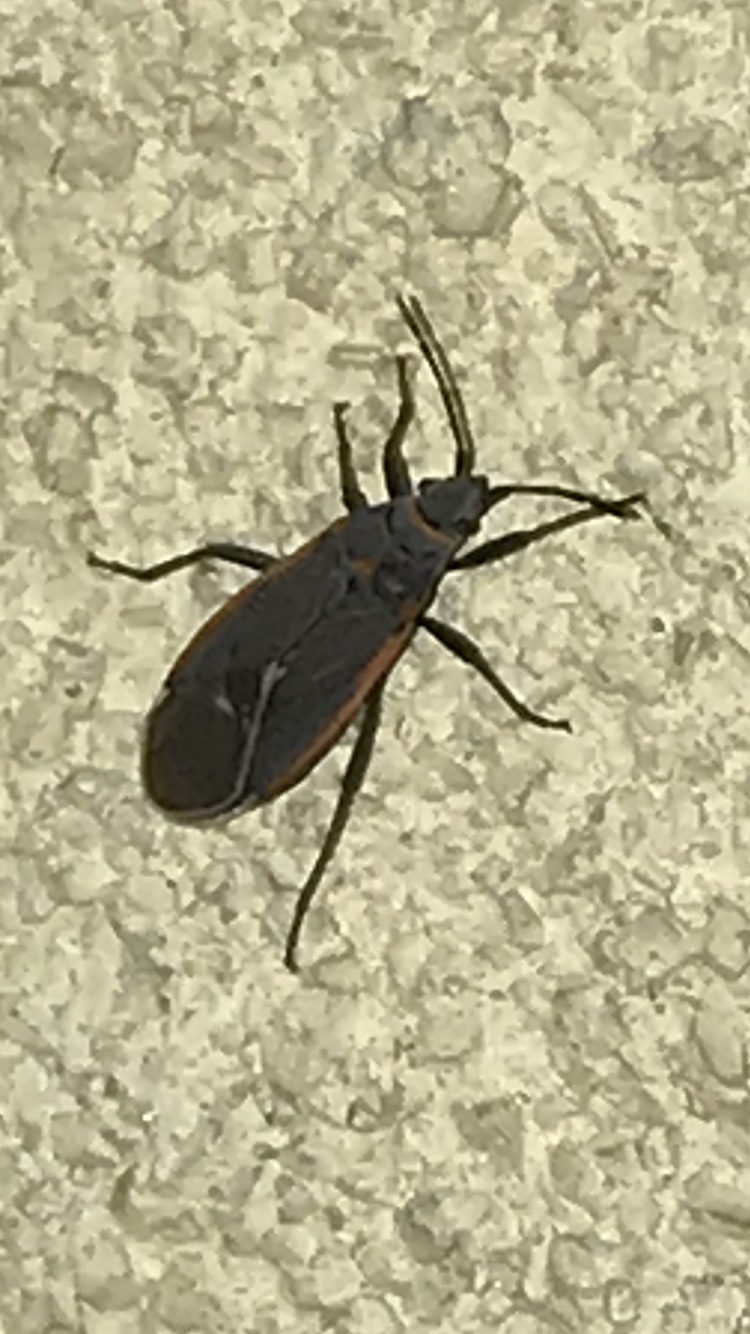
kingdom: Animalia
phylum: Arthropoda
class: Insecta
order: Hemiptera
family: Lygaeidae
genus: Melacoryphus
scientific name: Melacoryphus lateralis
